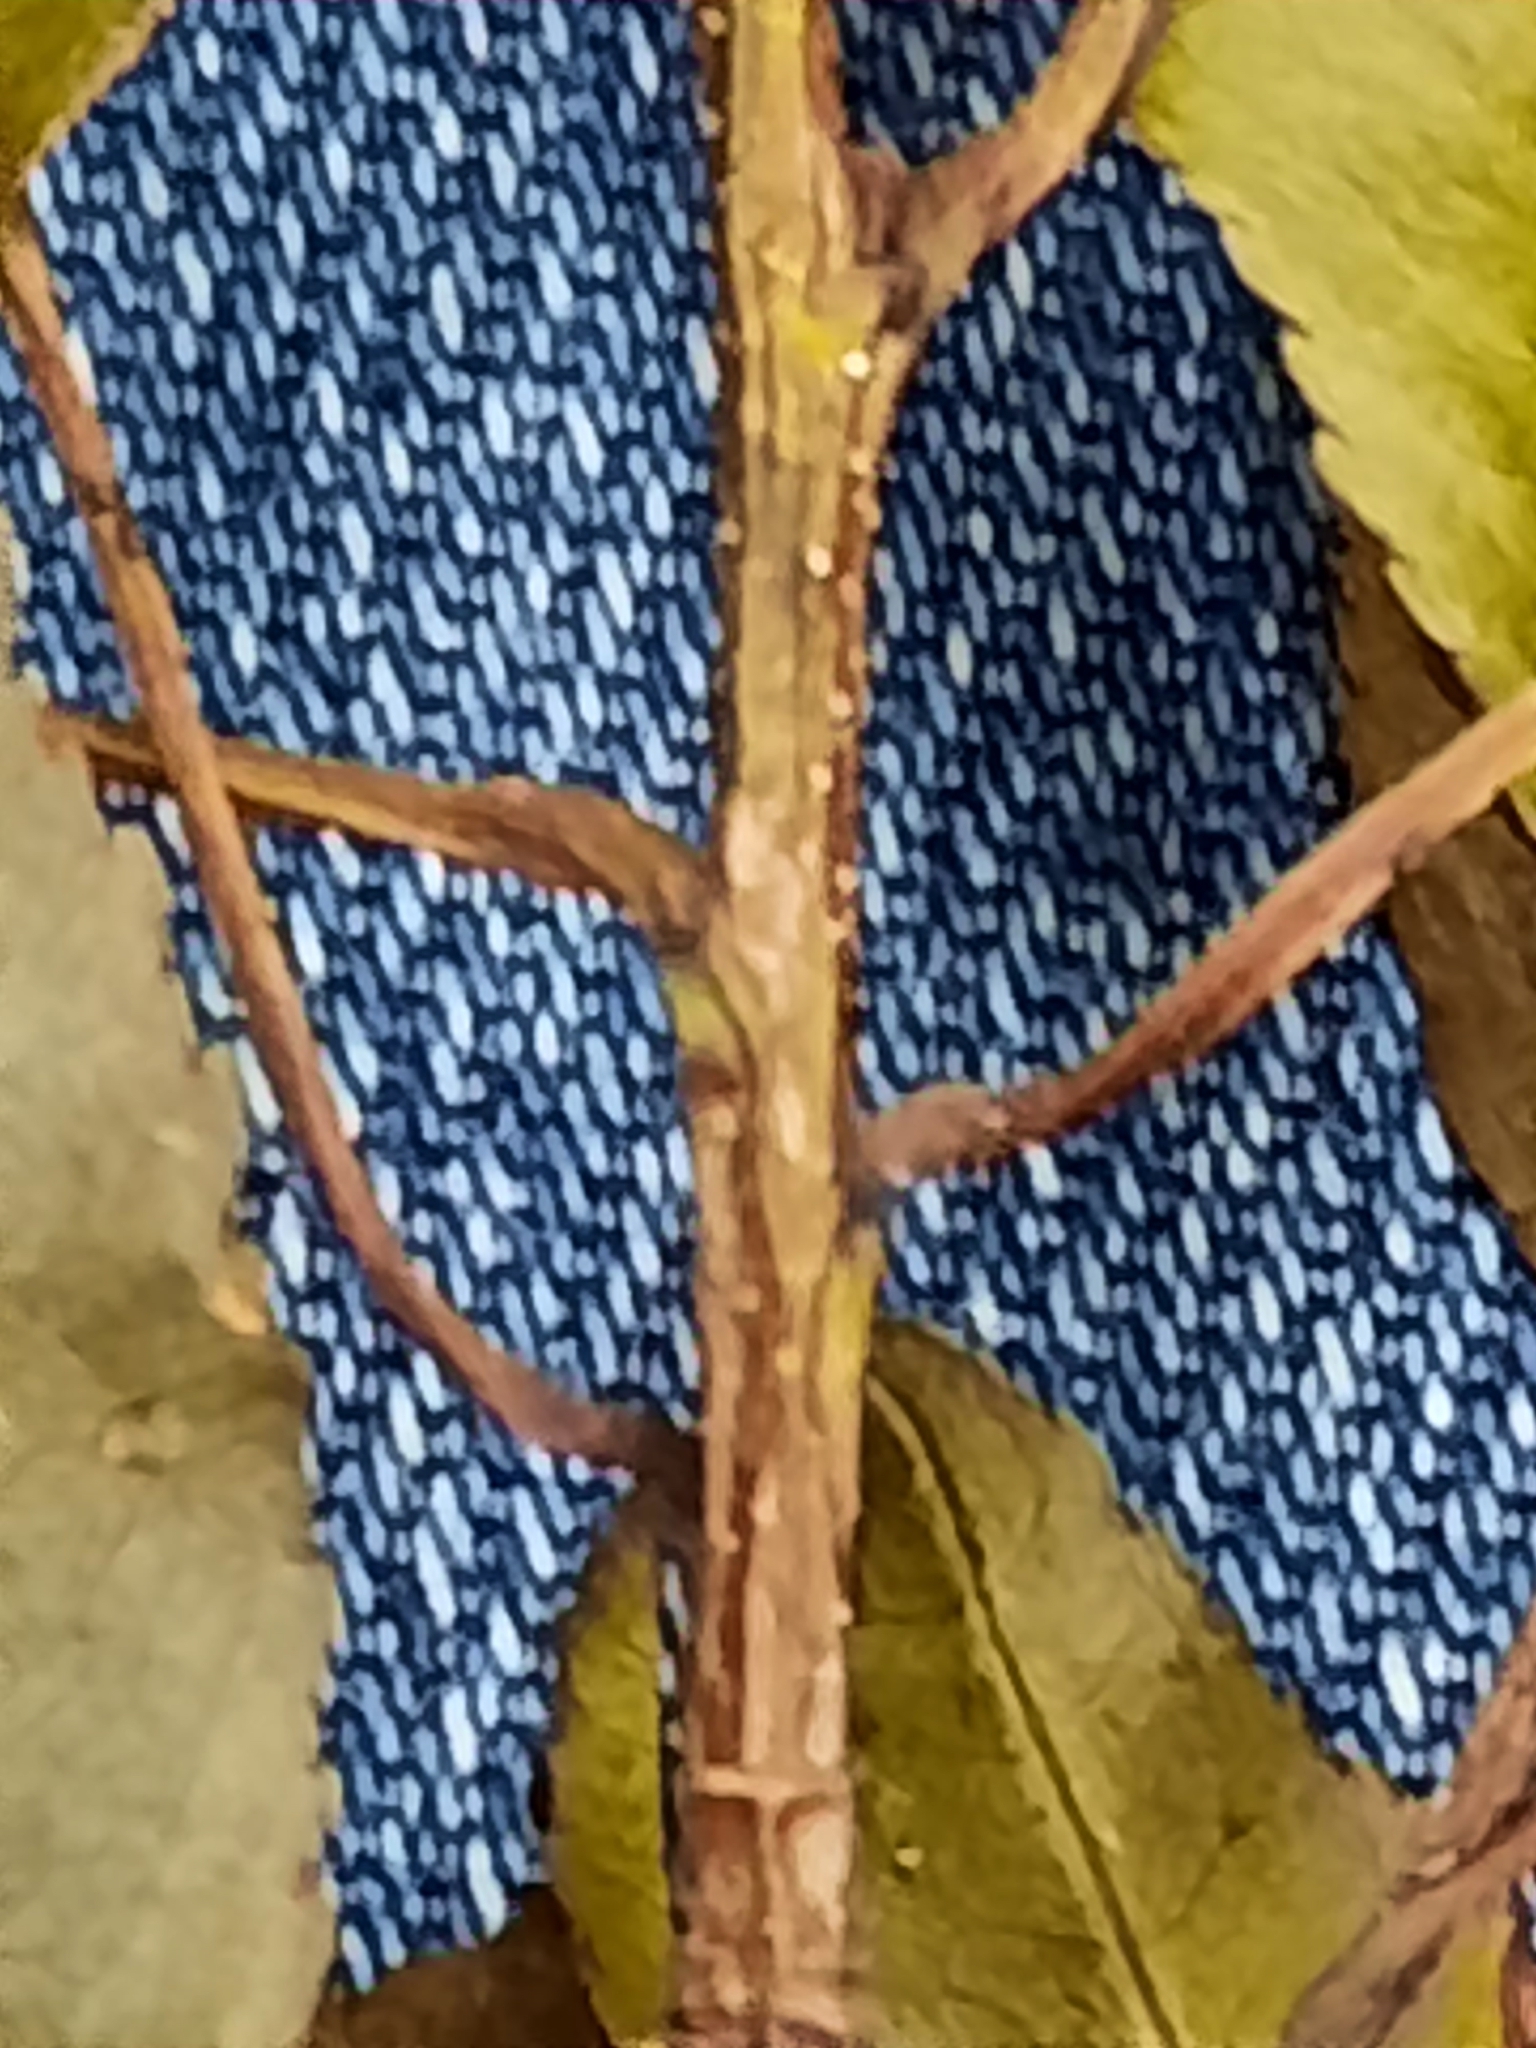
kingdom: Plantae
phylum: Tracheophyta
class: Magnoliopsida
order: Rosales
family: Rosaceae
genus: Prunus
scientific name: Prunus serotina
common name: Black cherry
